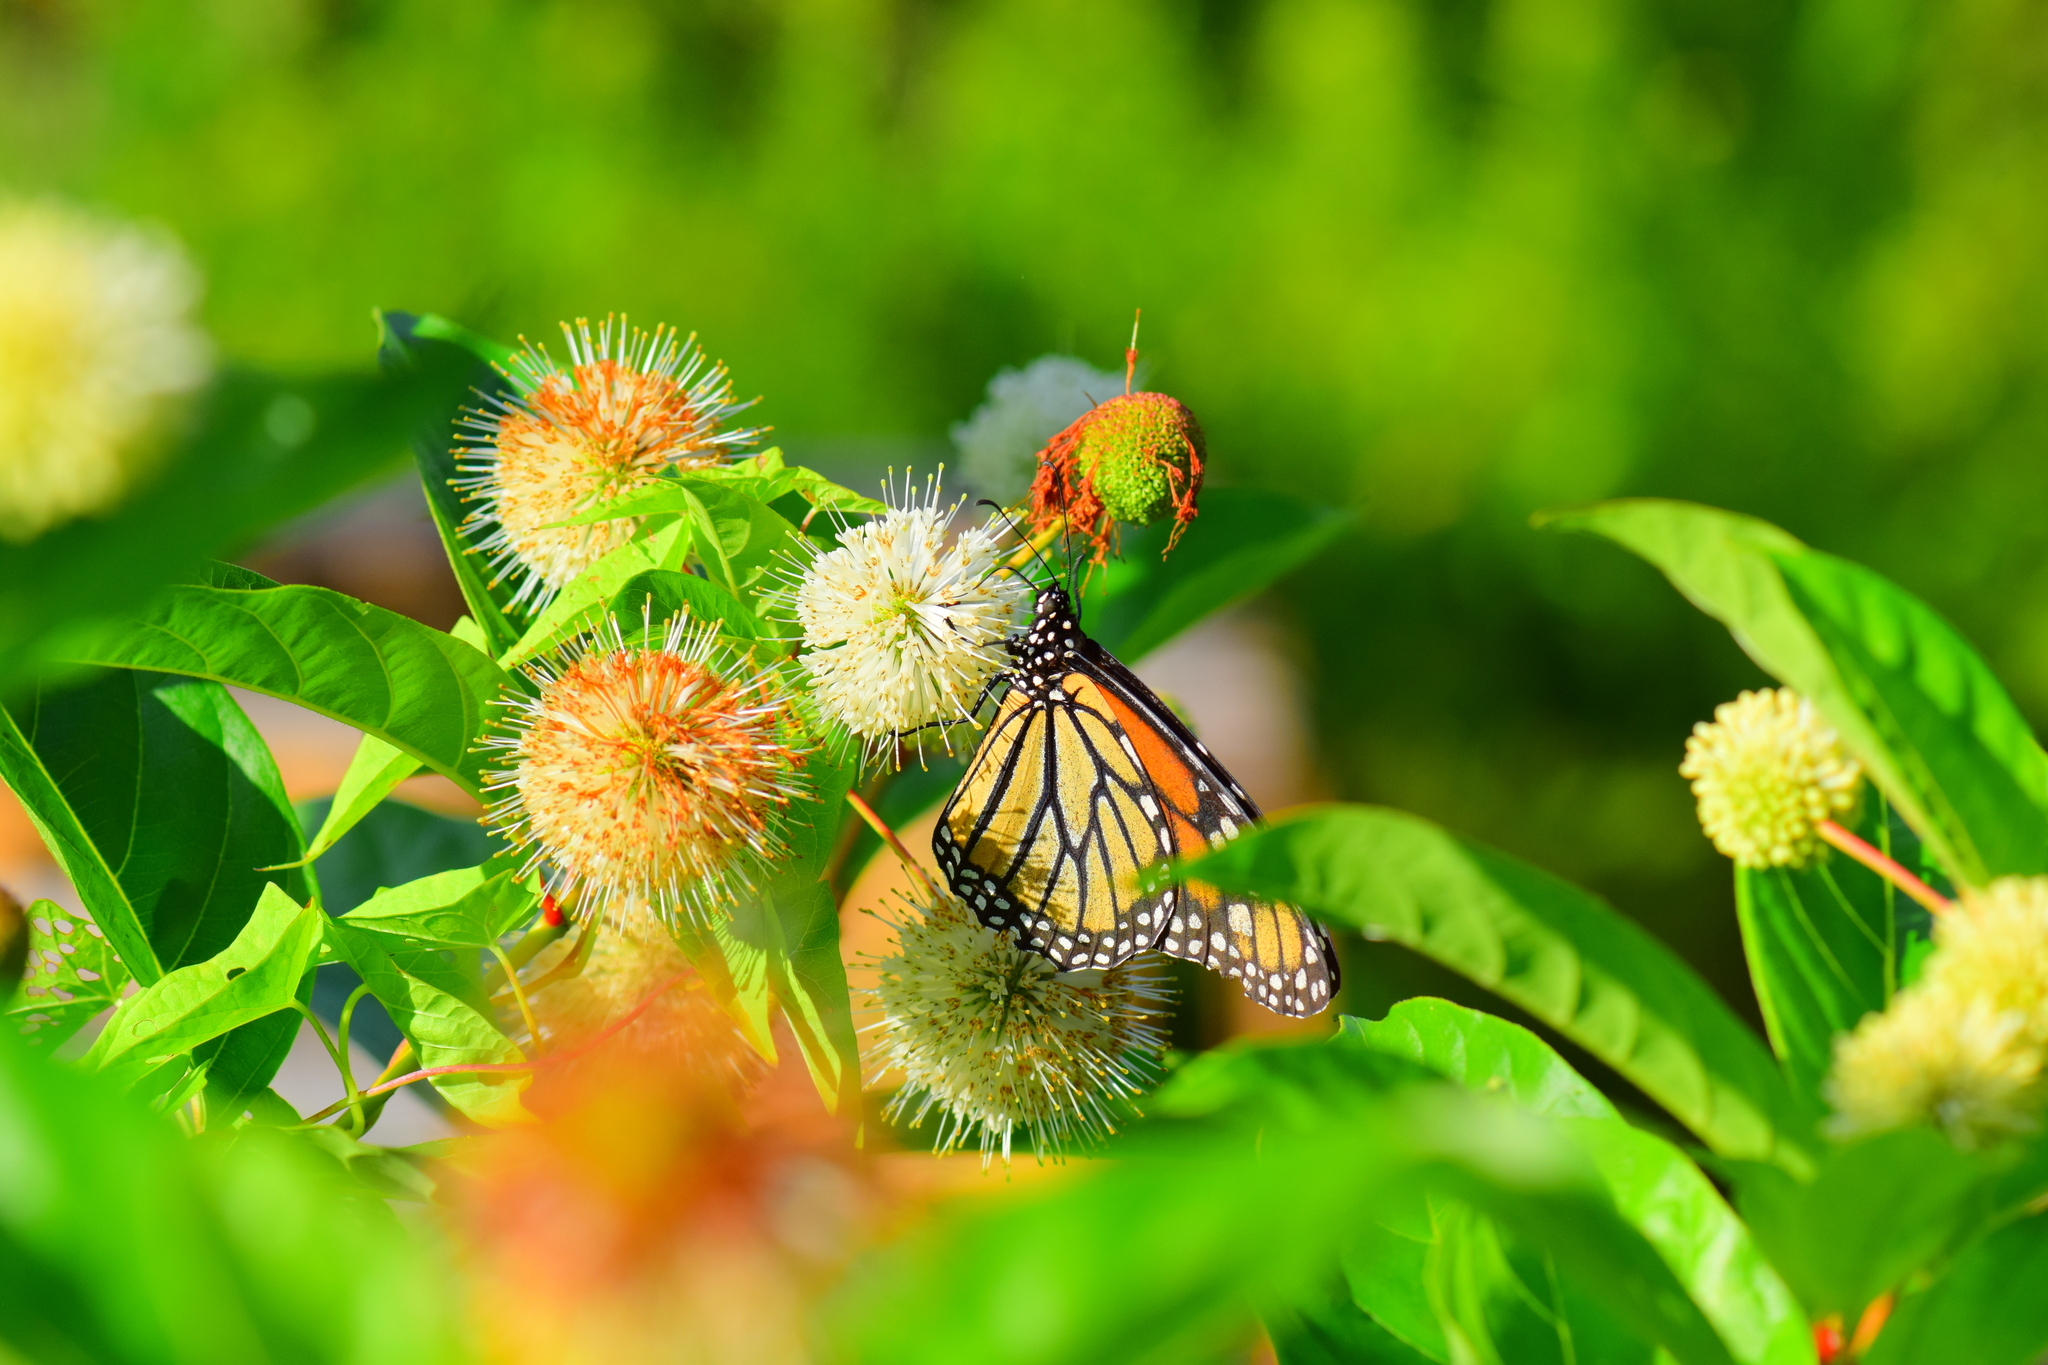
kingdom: Animalia
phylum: Arthropoda
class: Insecta
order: Lepidoptera
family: Nymphalidae
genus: Danaus
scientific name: Danaus plexippus
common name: Monarch
